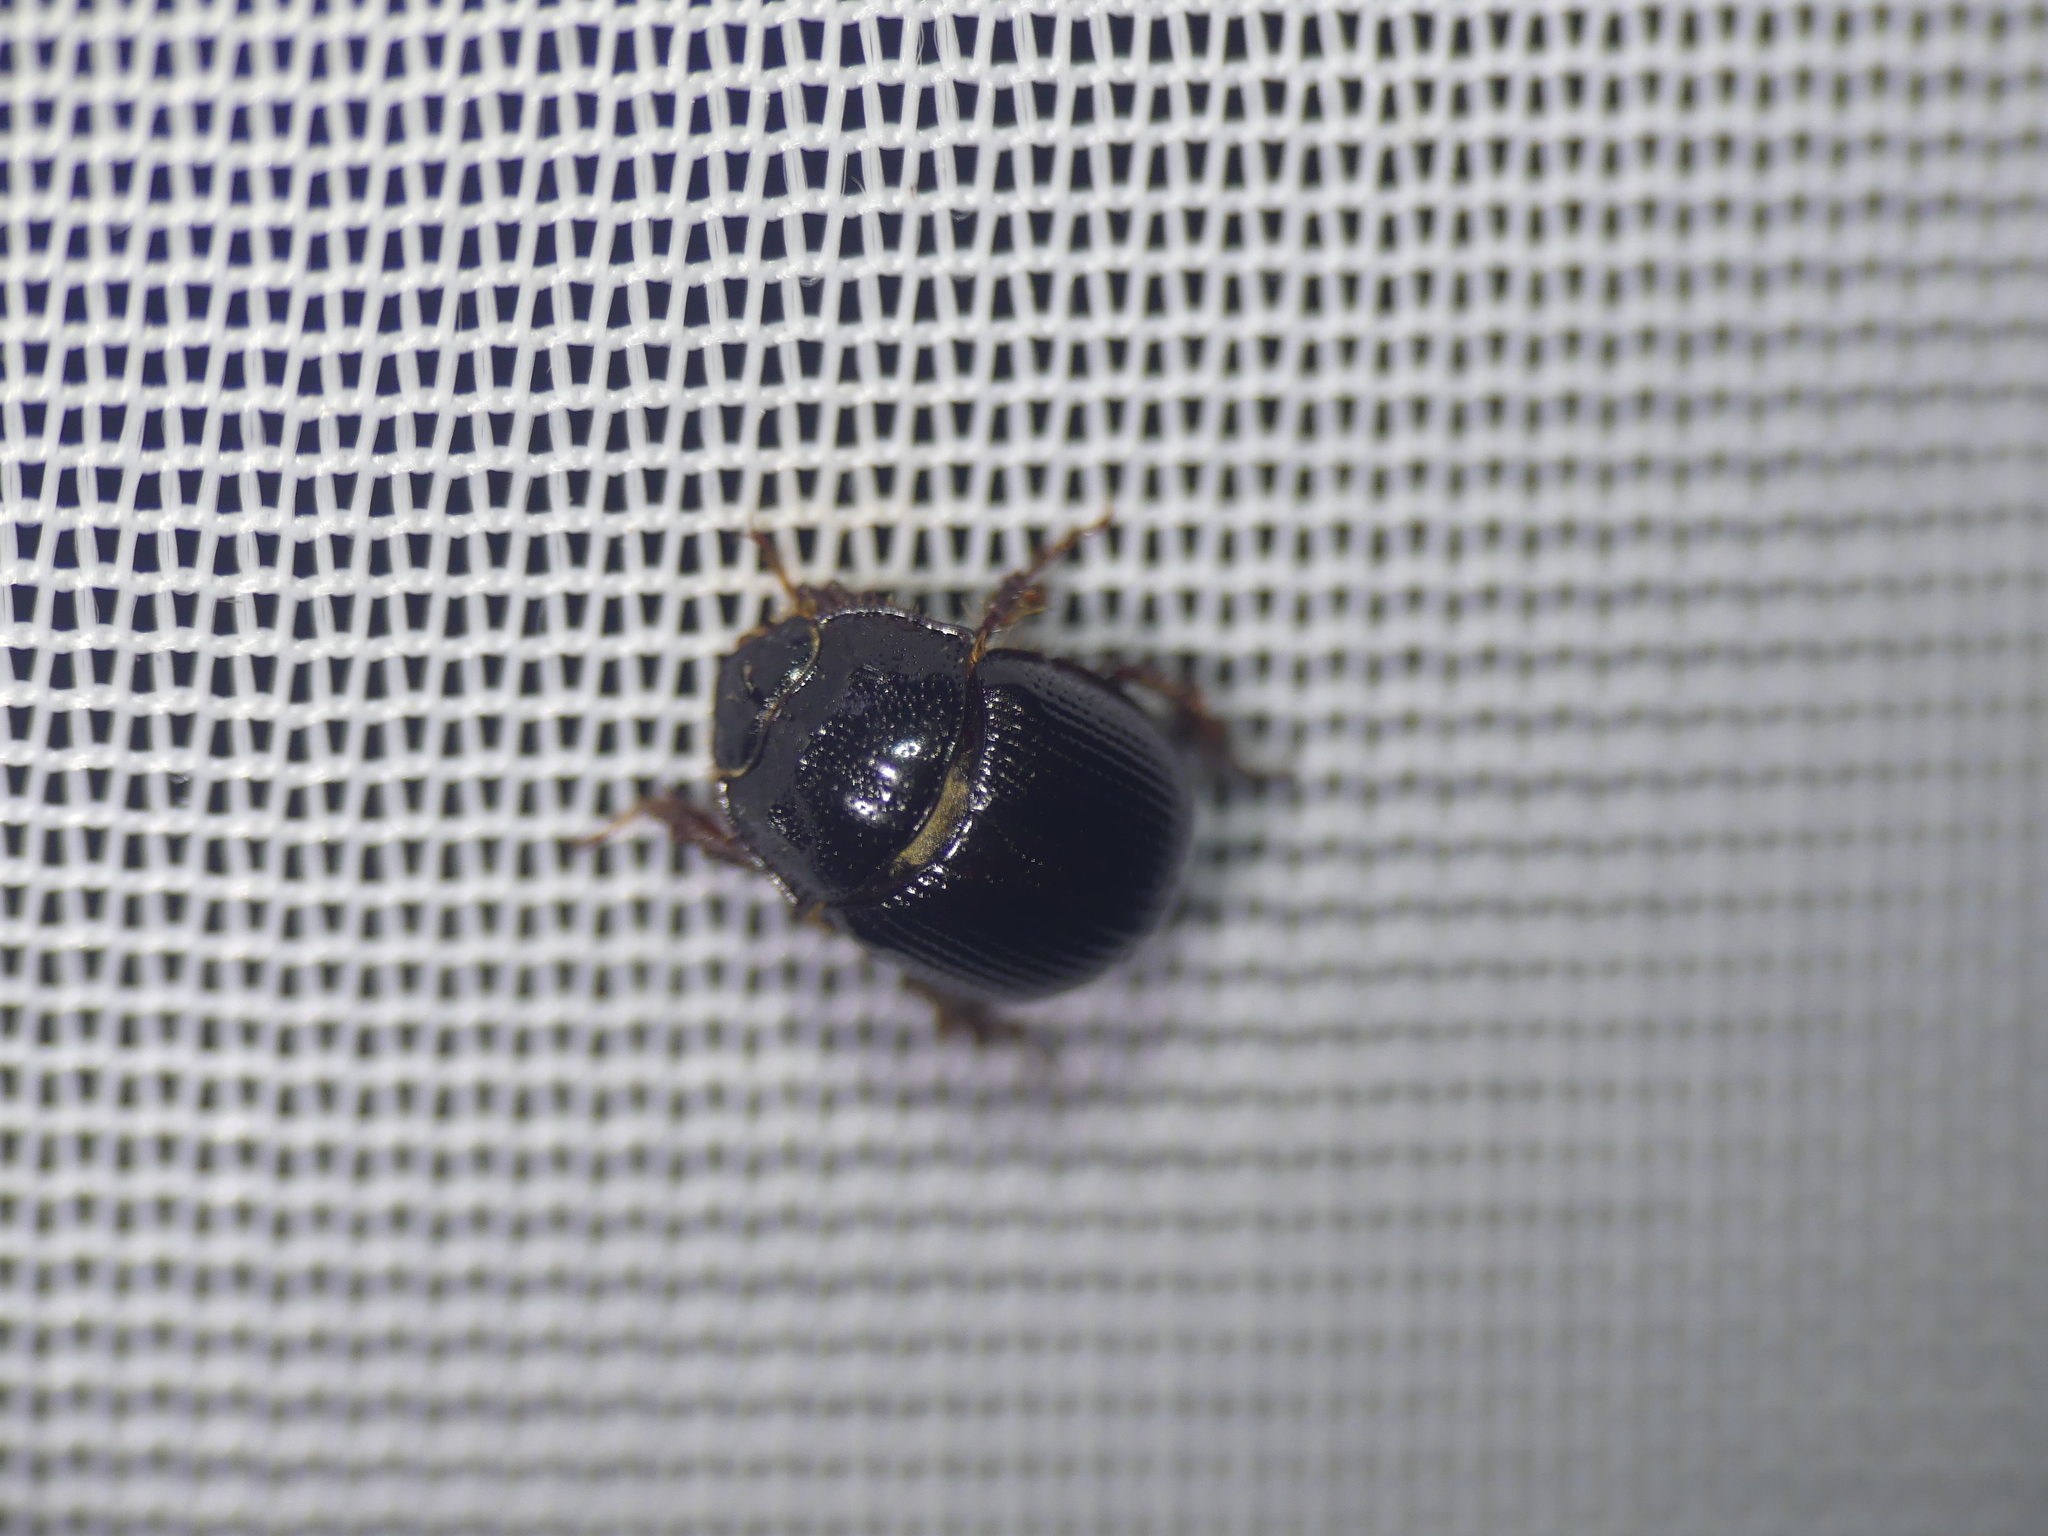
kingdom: Animalia
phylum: Arthropoda
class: Insecta
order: Coleoptera
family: Geotrupidae
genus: Odonteus
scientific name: Odonteus armiger
